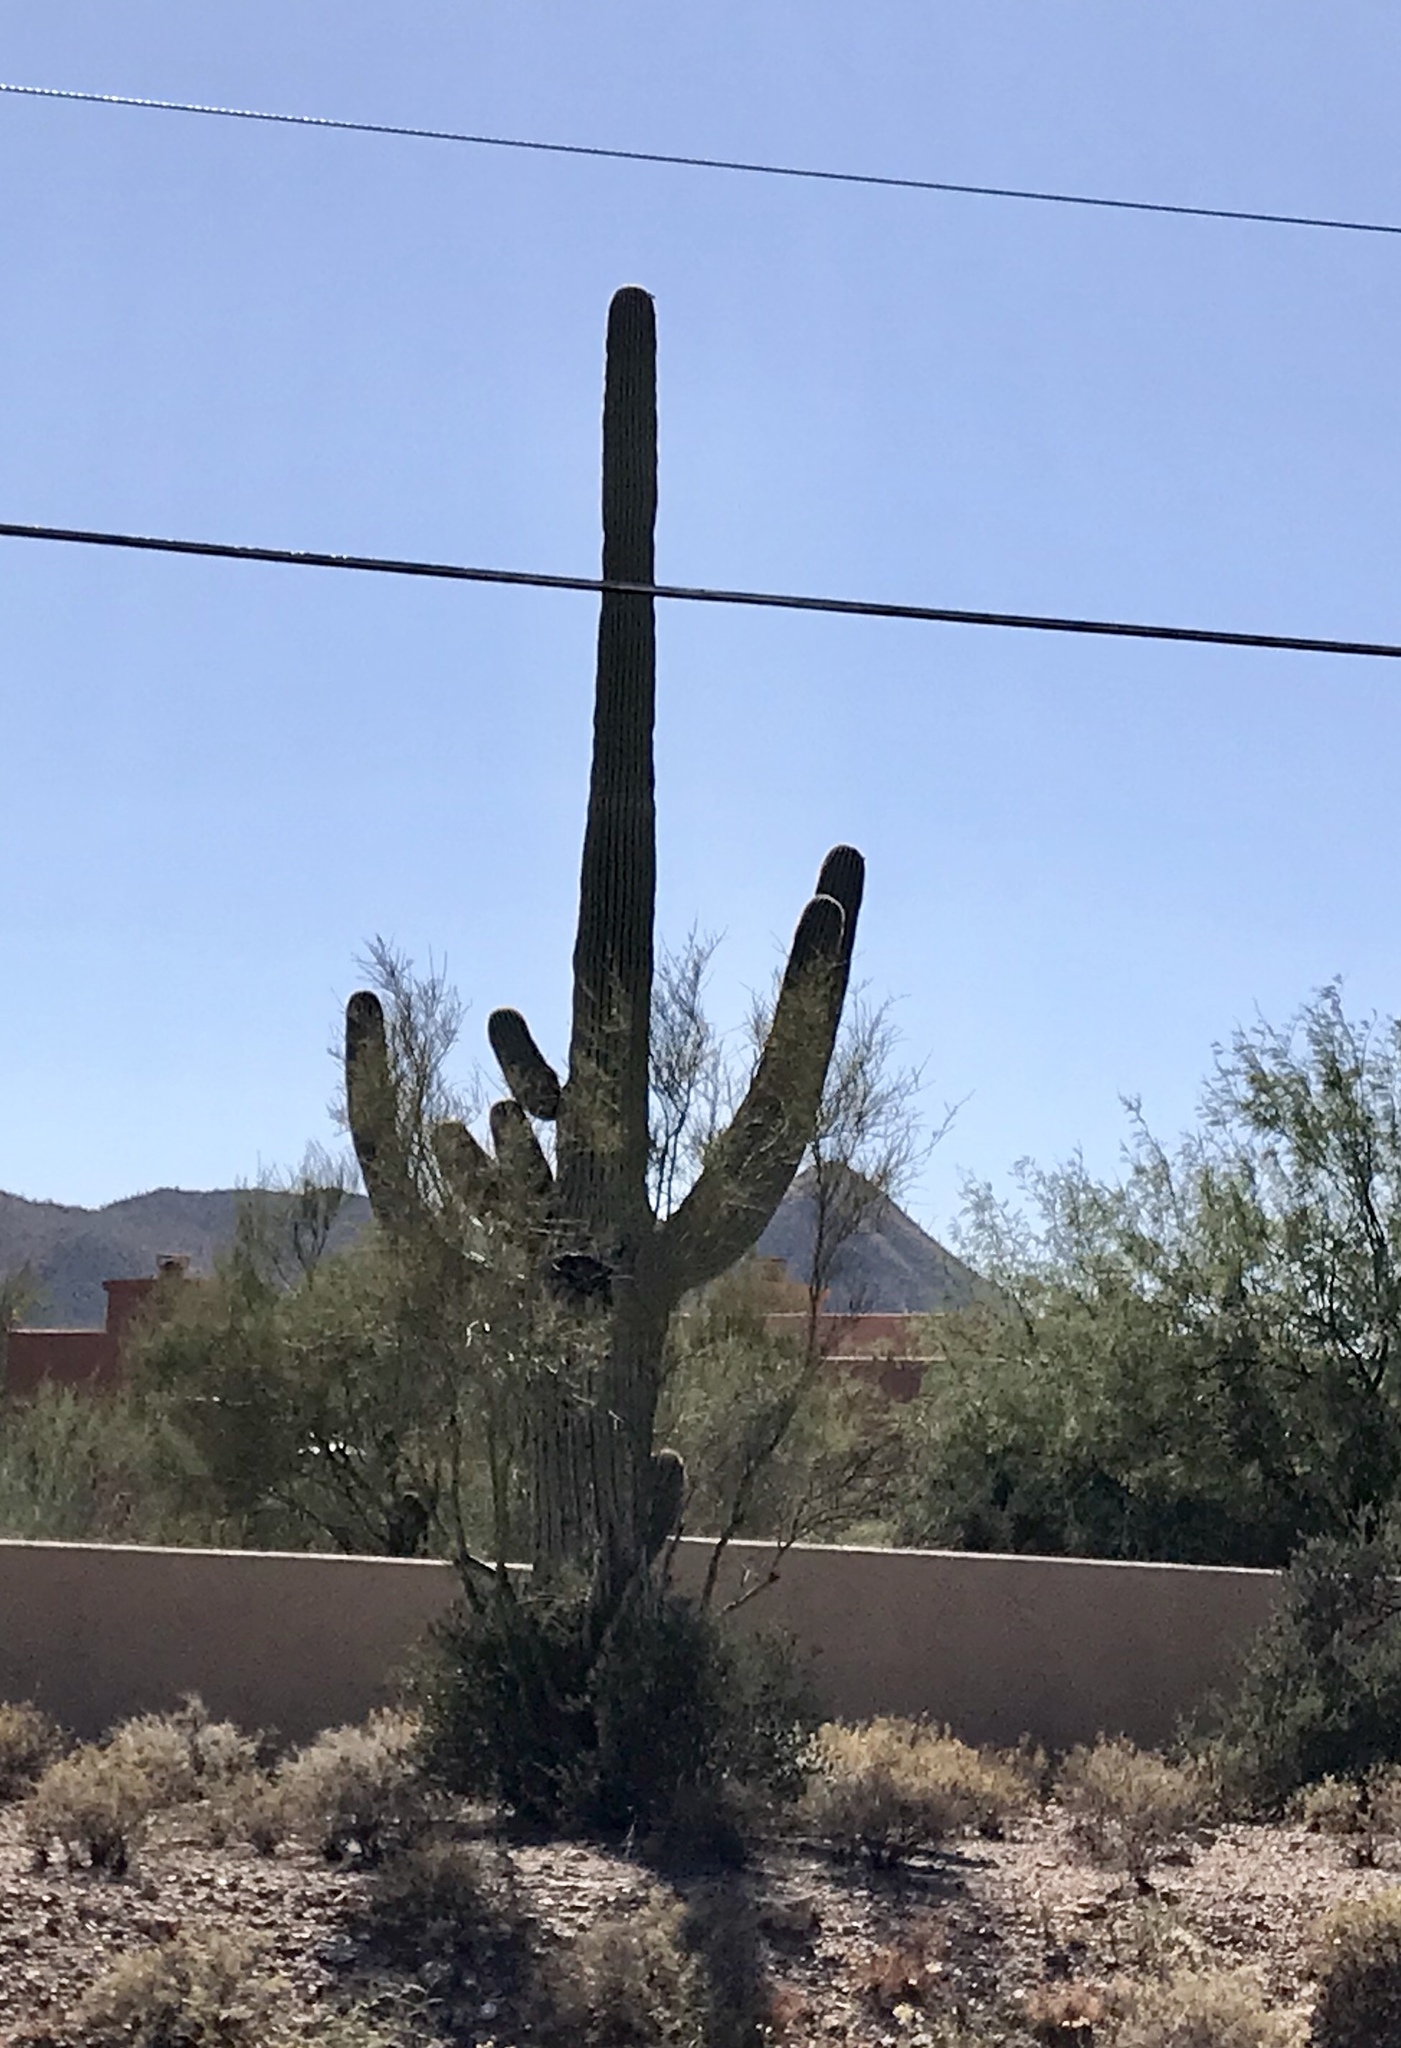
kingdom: Plantae
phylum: Tracheophyta
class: Magnoliopsida
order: Caryophyllales
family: Cactaceae
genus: Carnegiea
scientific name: Carnegiea gigantea
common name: Saguaro
